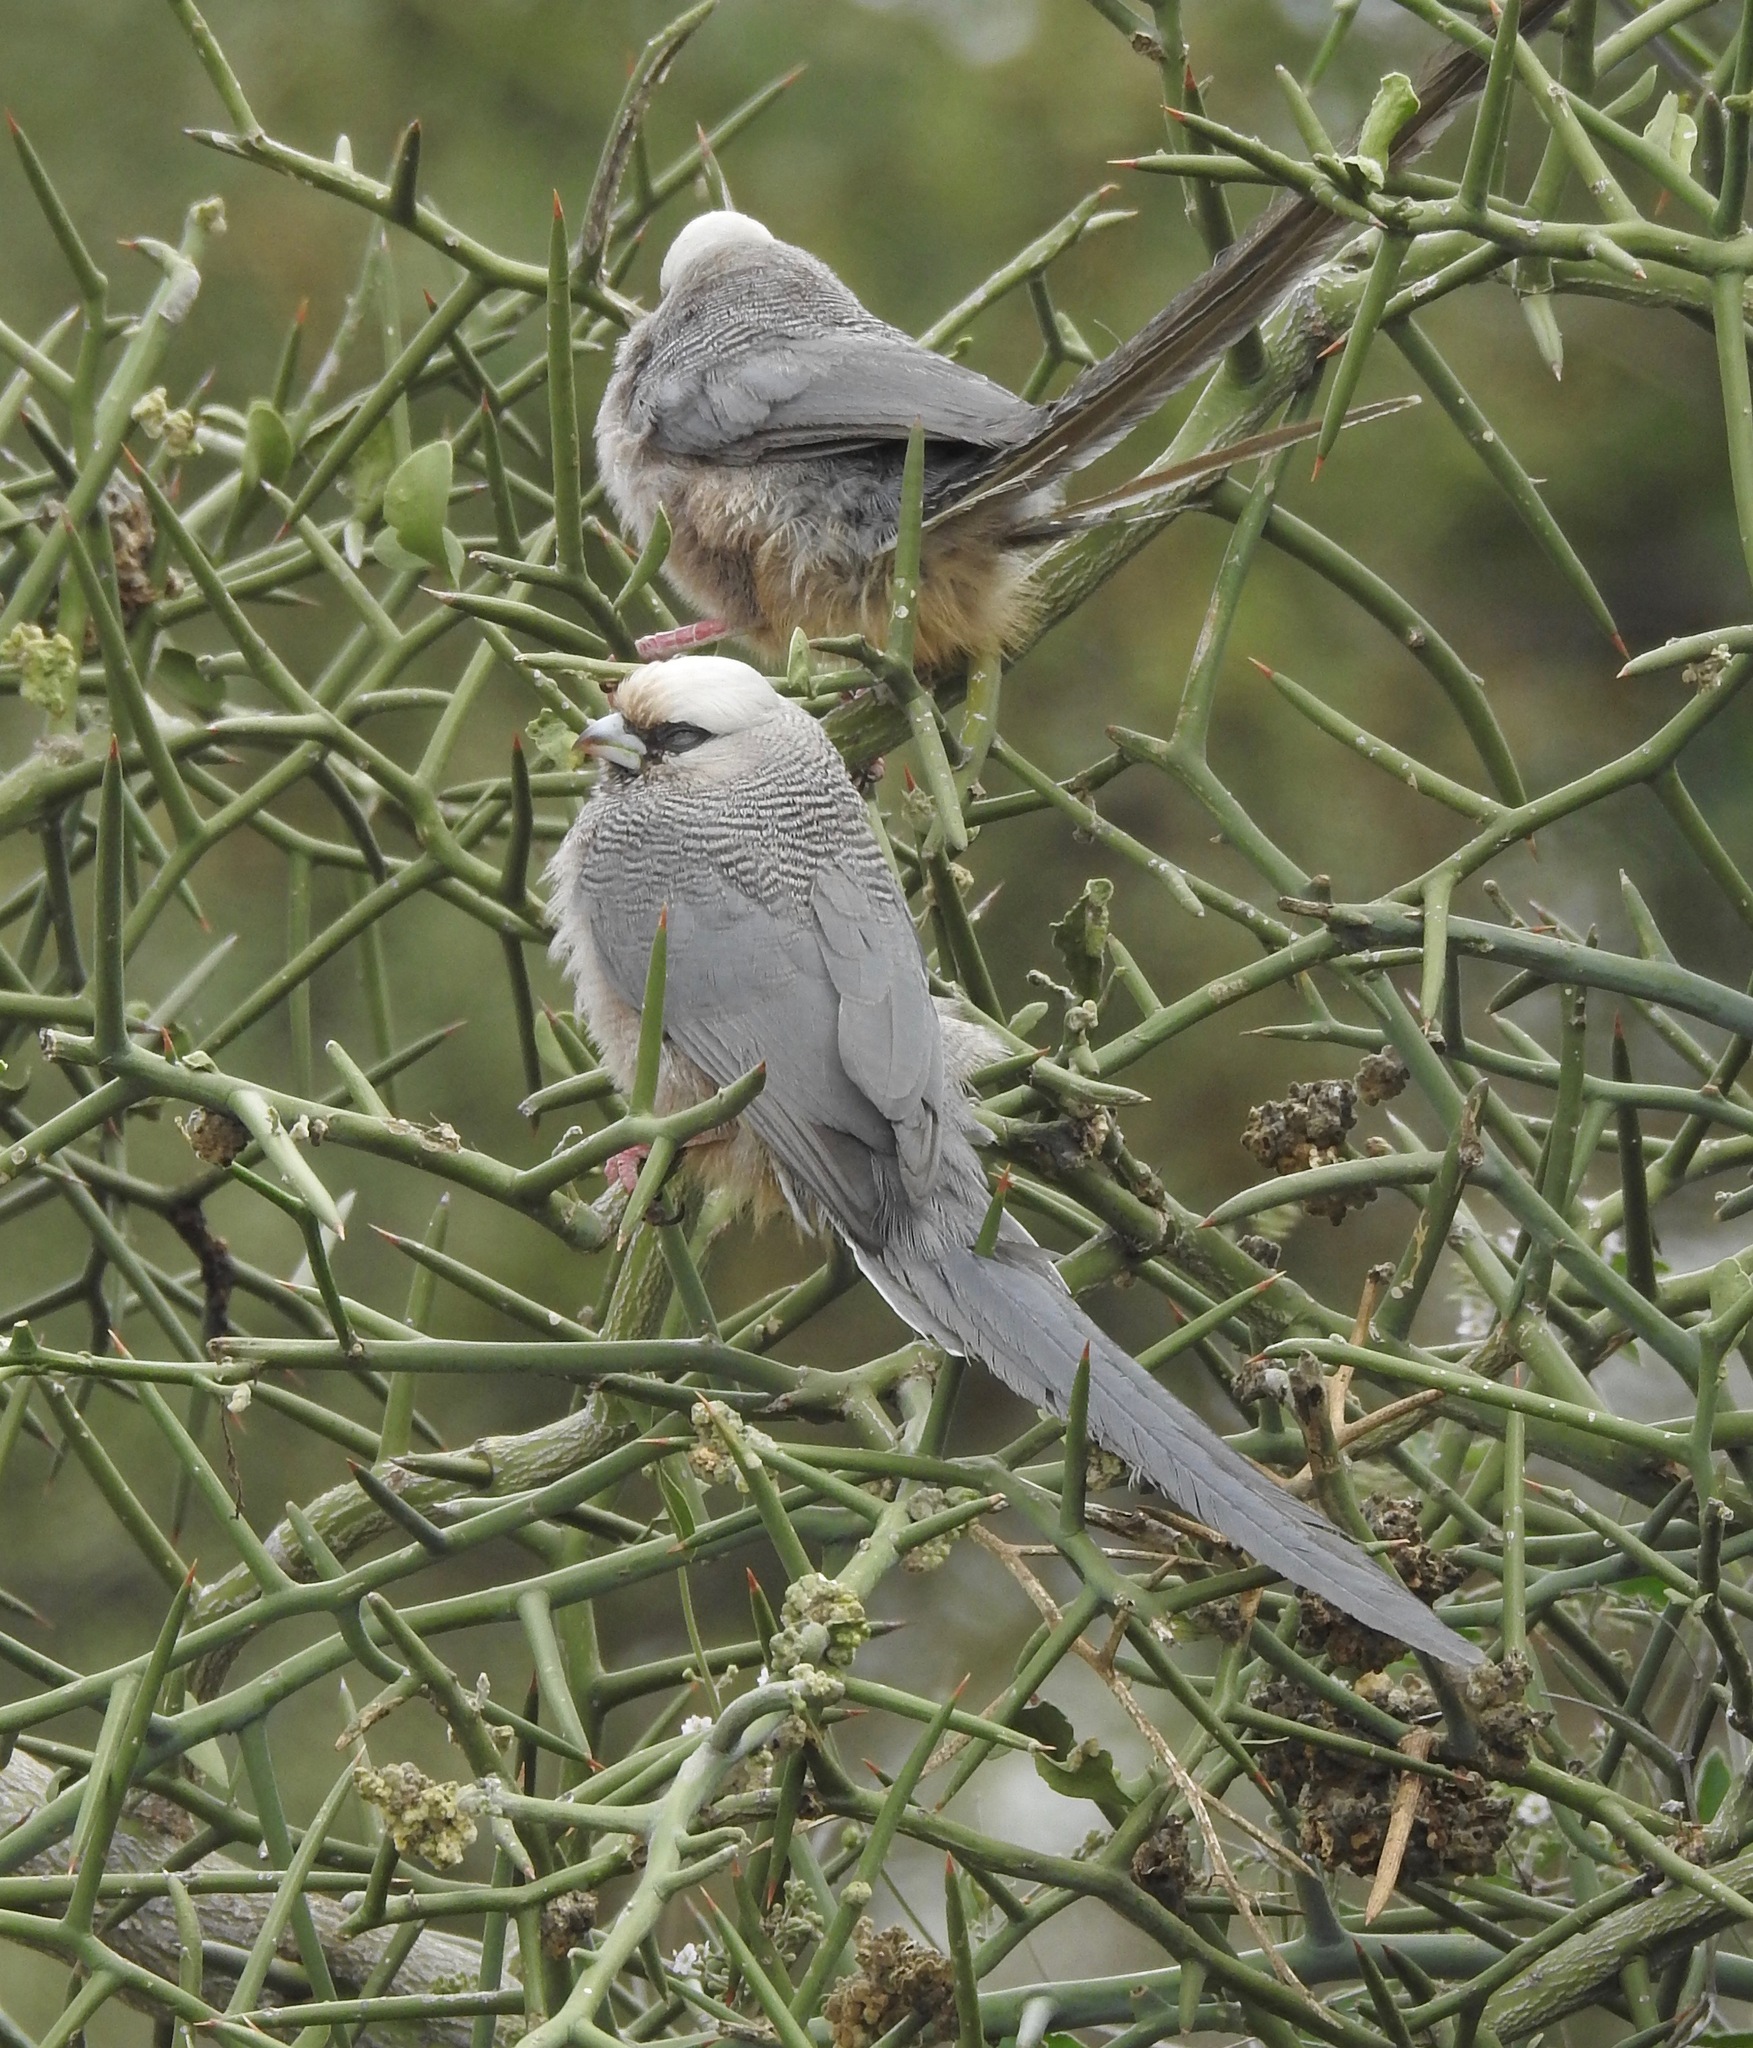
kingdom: Animalia
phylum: Chordata
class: Aves
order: Coliiformes
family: Coliidae
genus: Colius
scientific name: Colius leucocephalus
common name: White-headed mousebird
